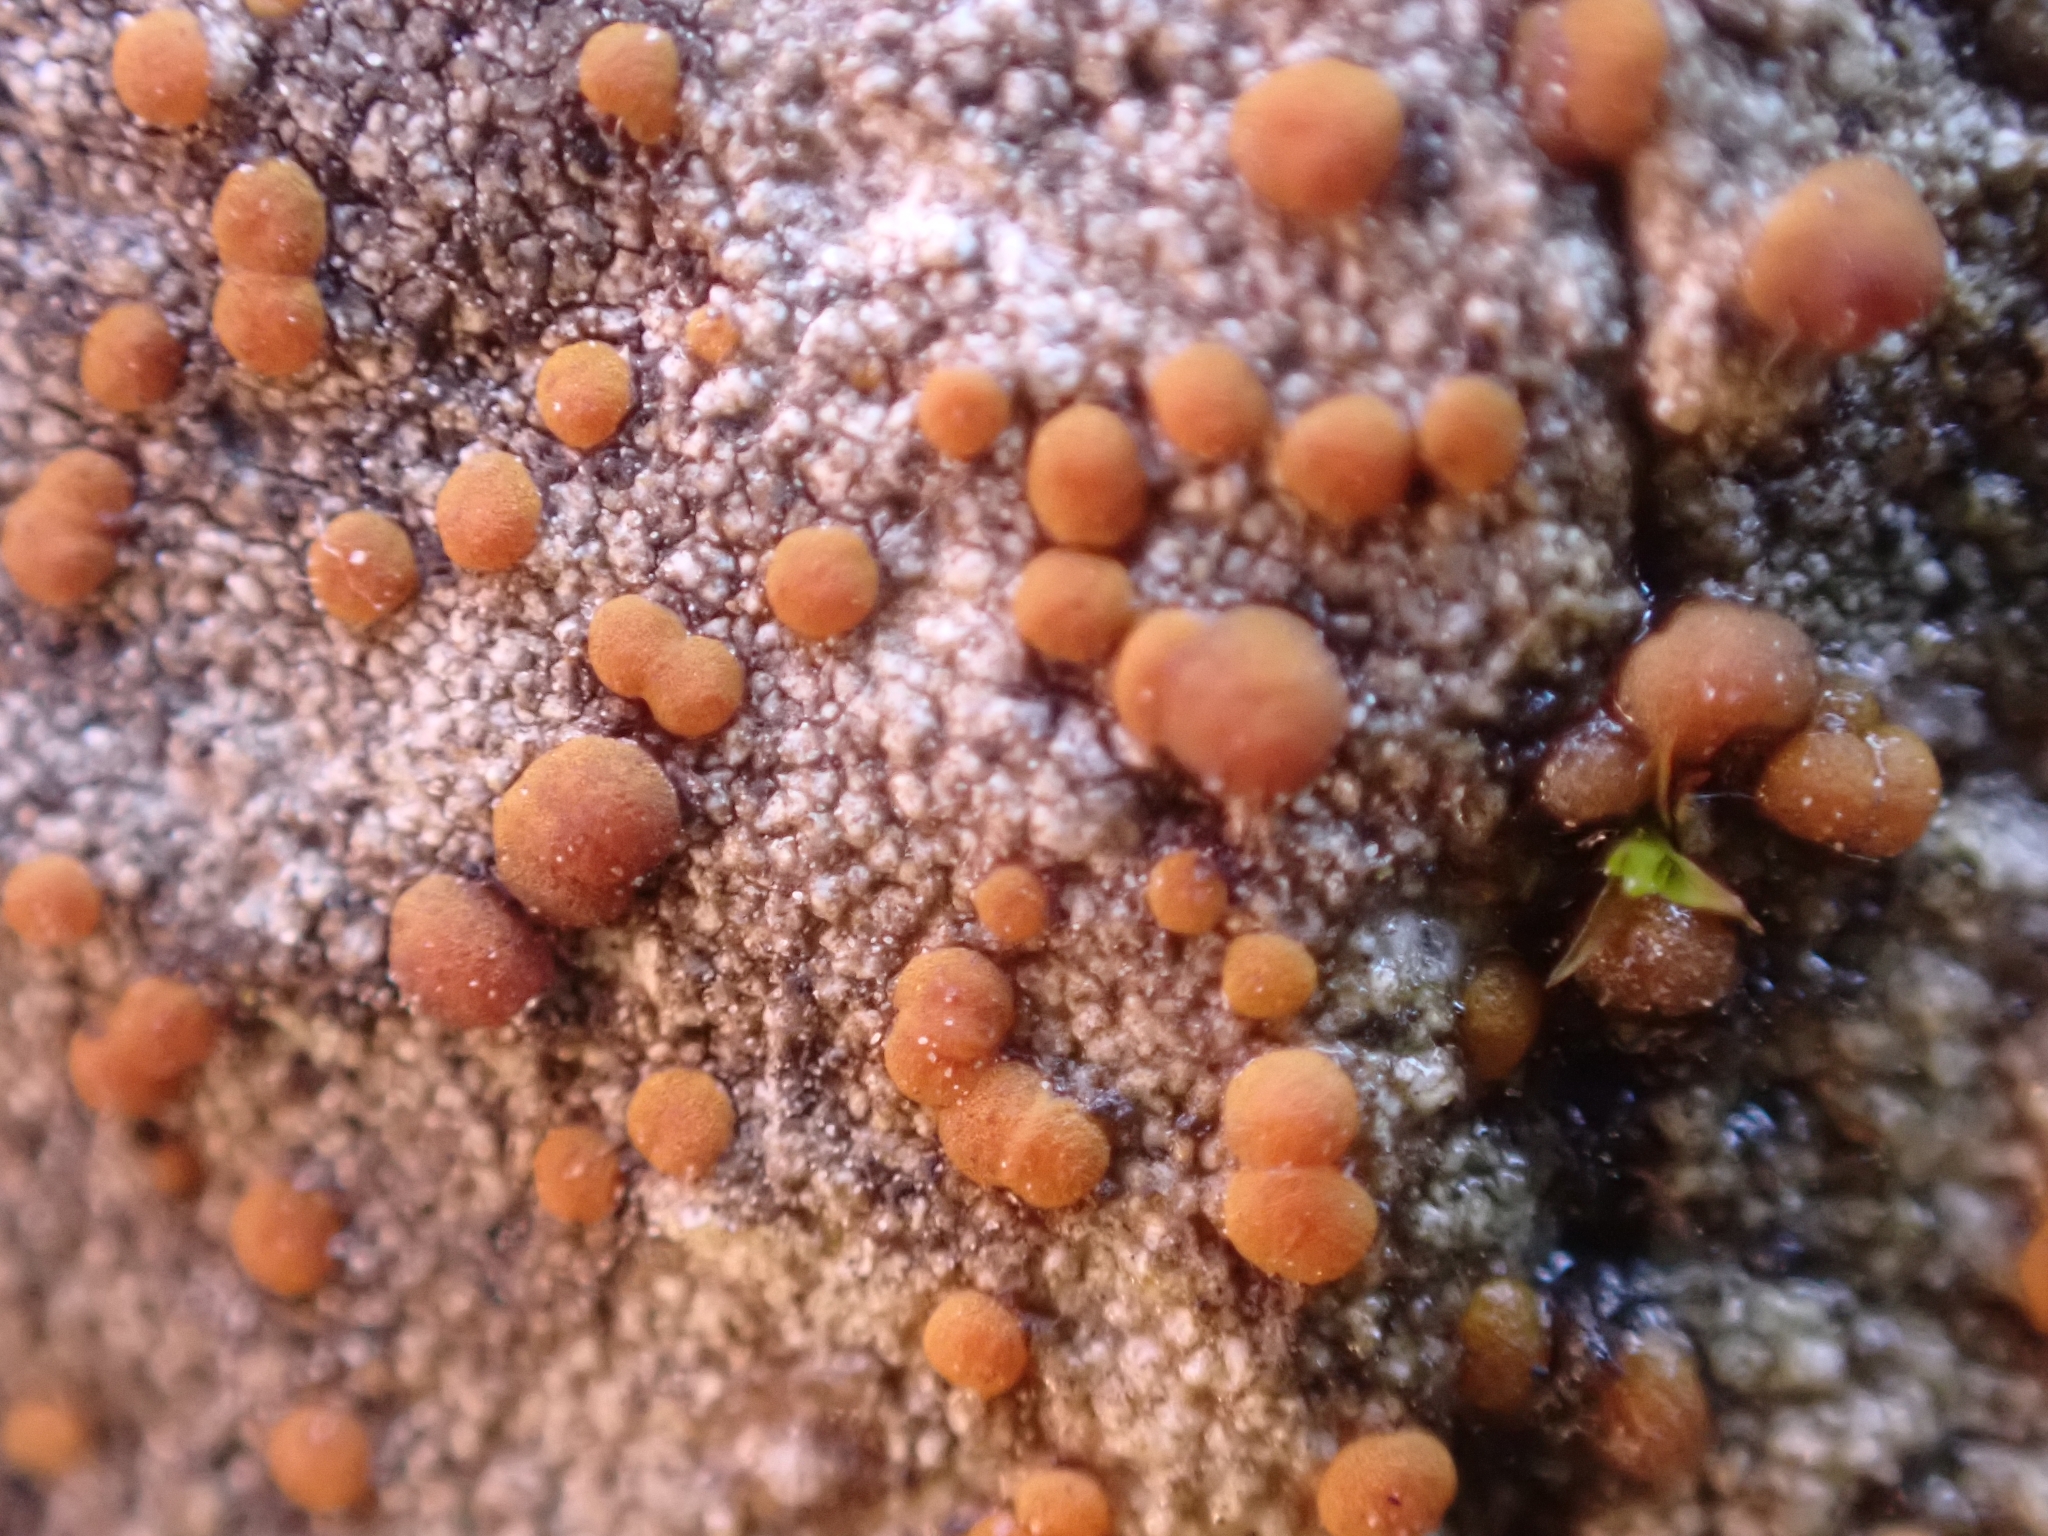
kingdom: Fungi
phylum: Ascomycota
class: Lecanoromycetes
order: Lecanorales
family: Psoraceae
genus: Protoblastenia
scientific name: Protoblastenia rupestris
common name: Chewing gum lichen
